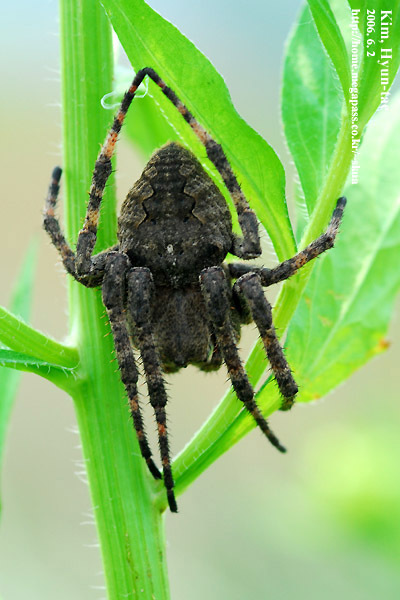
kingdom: Animalia
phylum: Arthropoda
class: Arachnida
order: Araneae
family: Araneidae
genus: Araneus
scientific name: Araneus ventricosus
